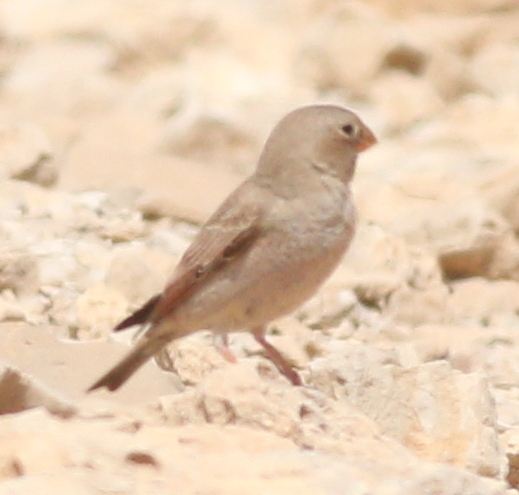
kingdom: Animalia
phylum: Chordata
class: Aves
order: Passeriformes
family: Fringillidae
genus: Bucanetes
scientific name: Bucanetes githagineus
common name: Trumpeter finch
